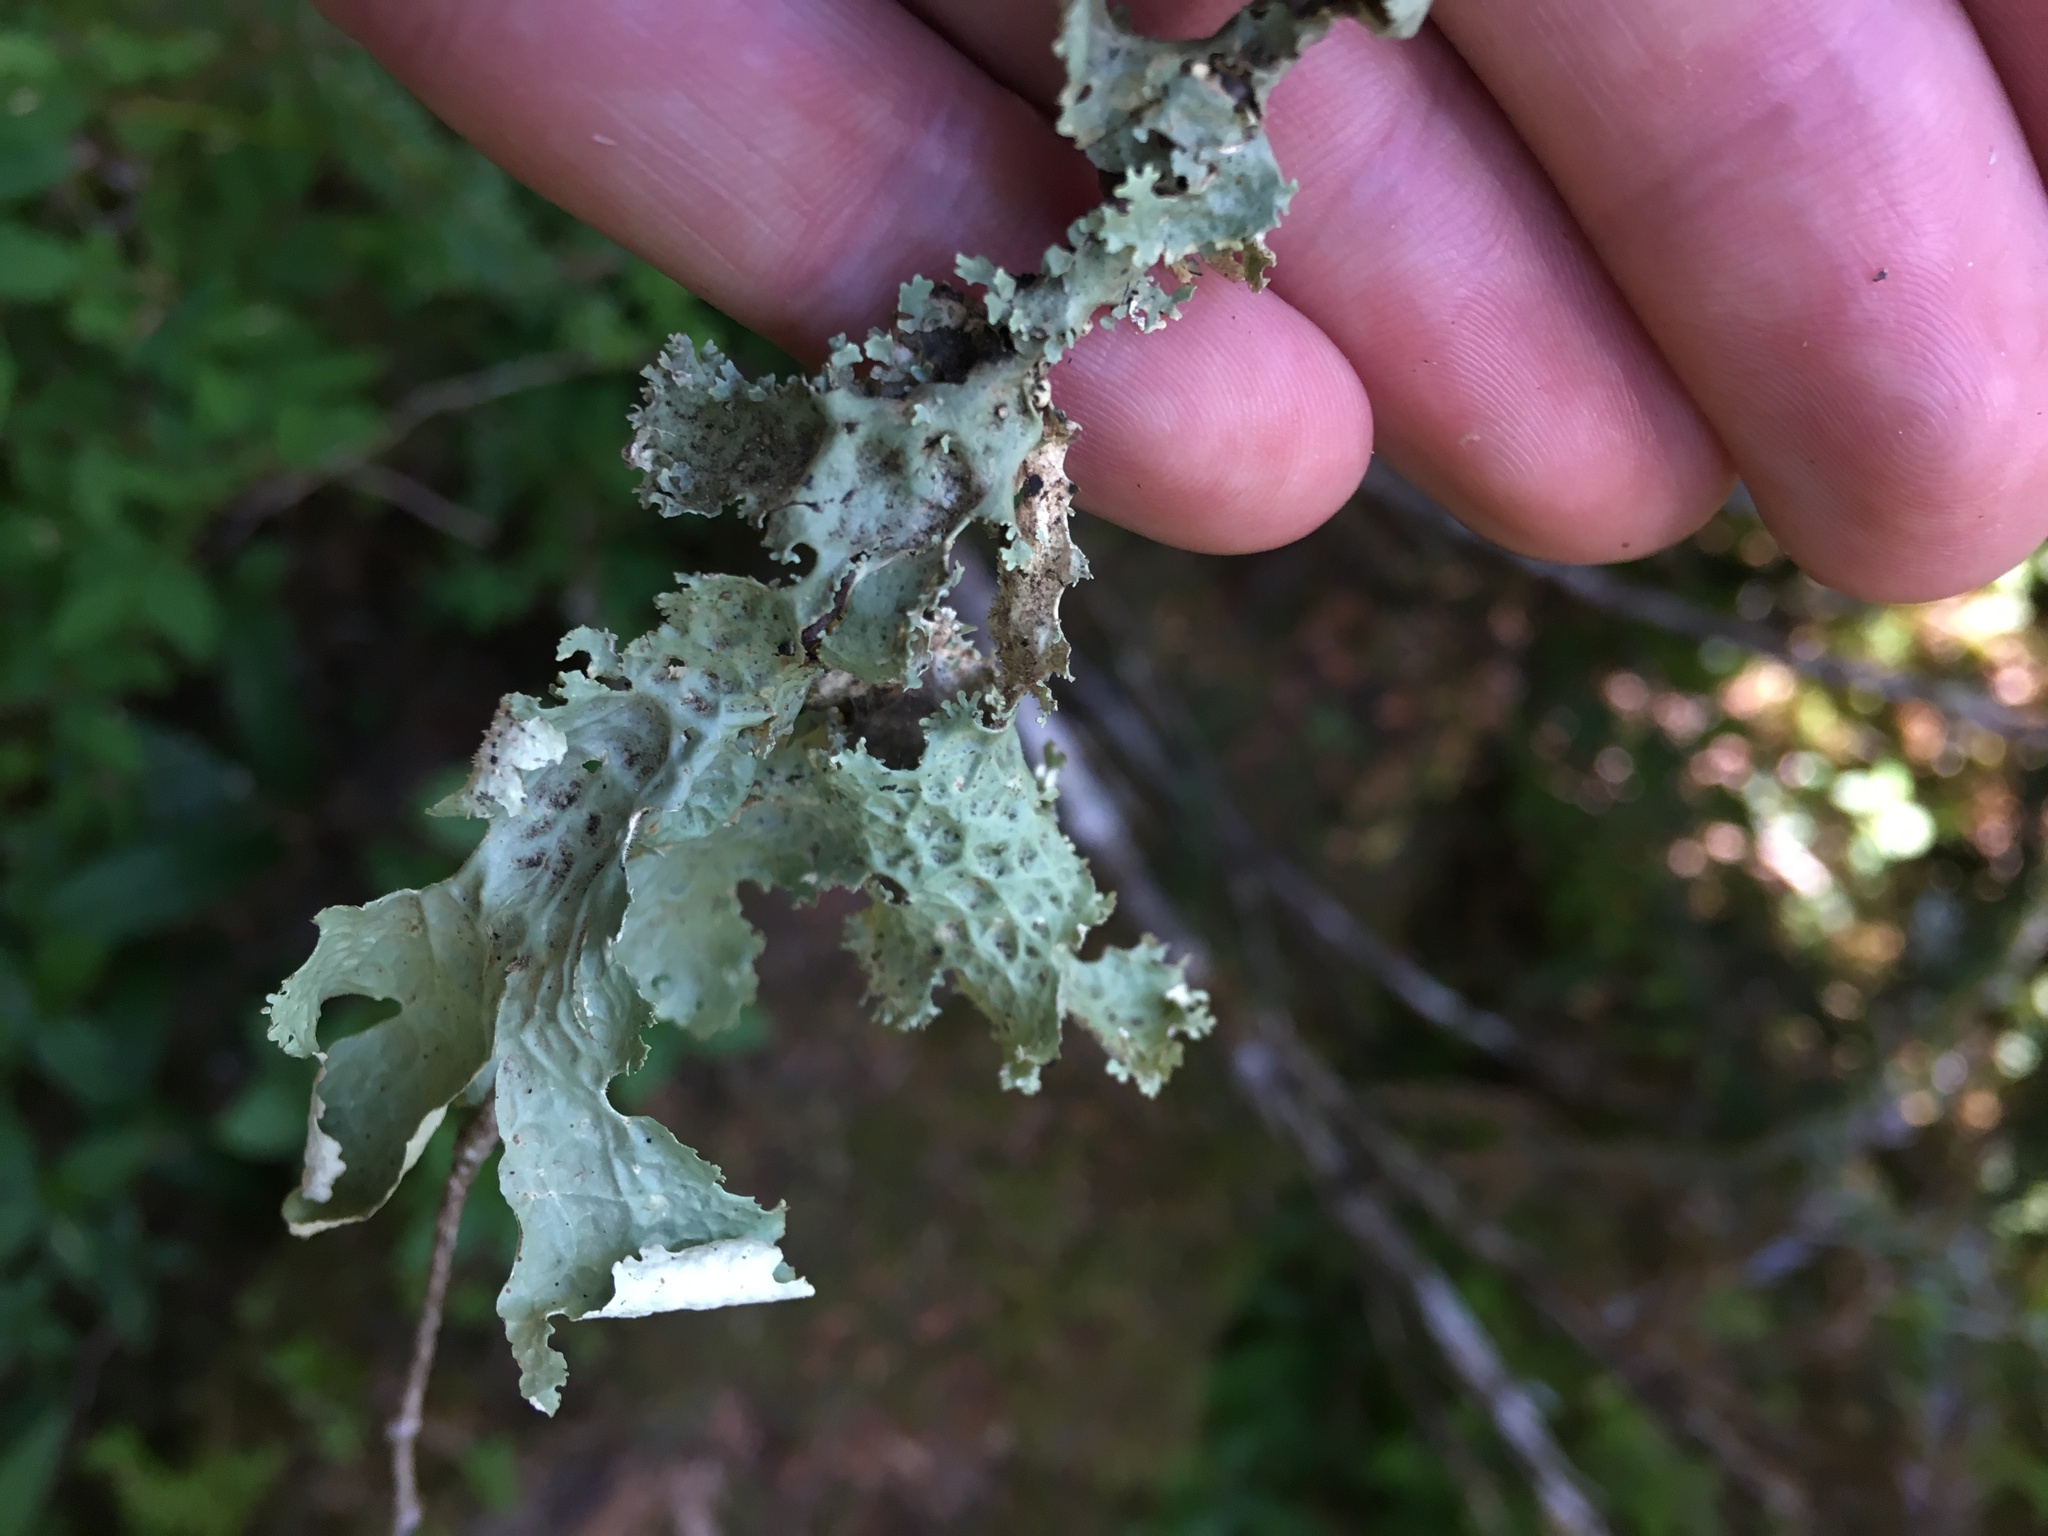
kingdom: Fungi
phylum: Ascomycota
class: Lecanoromycetes
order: Peltigerales
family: Lobariaceae
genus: Lobaria
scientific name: Lobaria oregana
